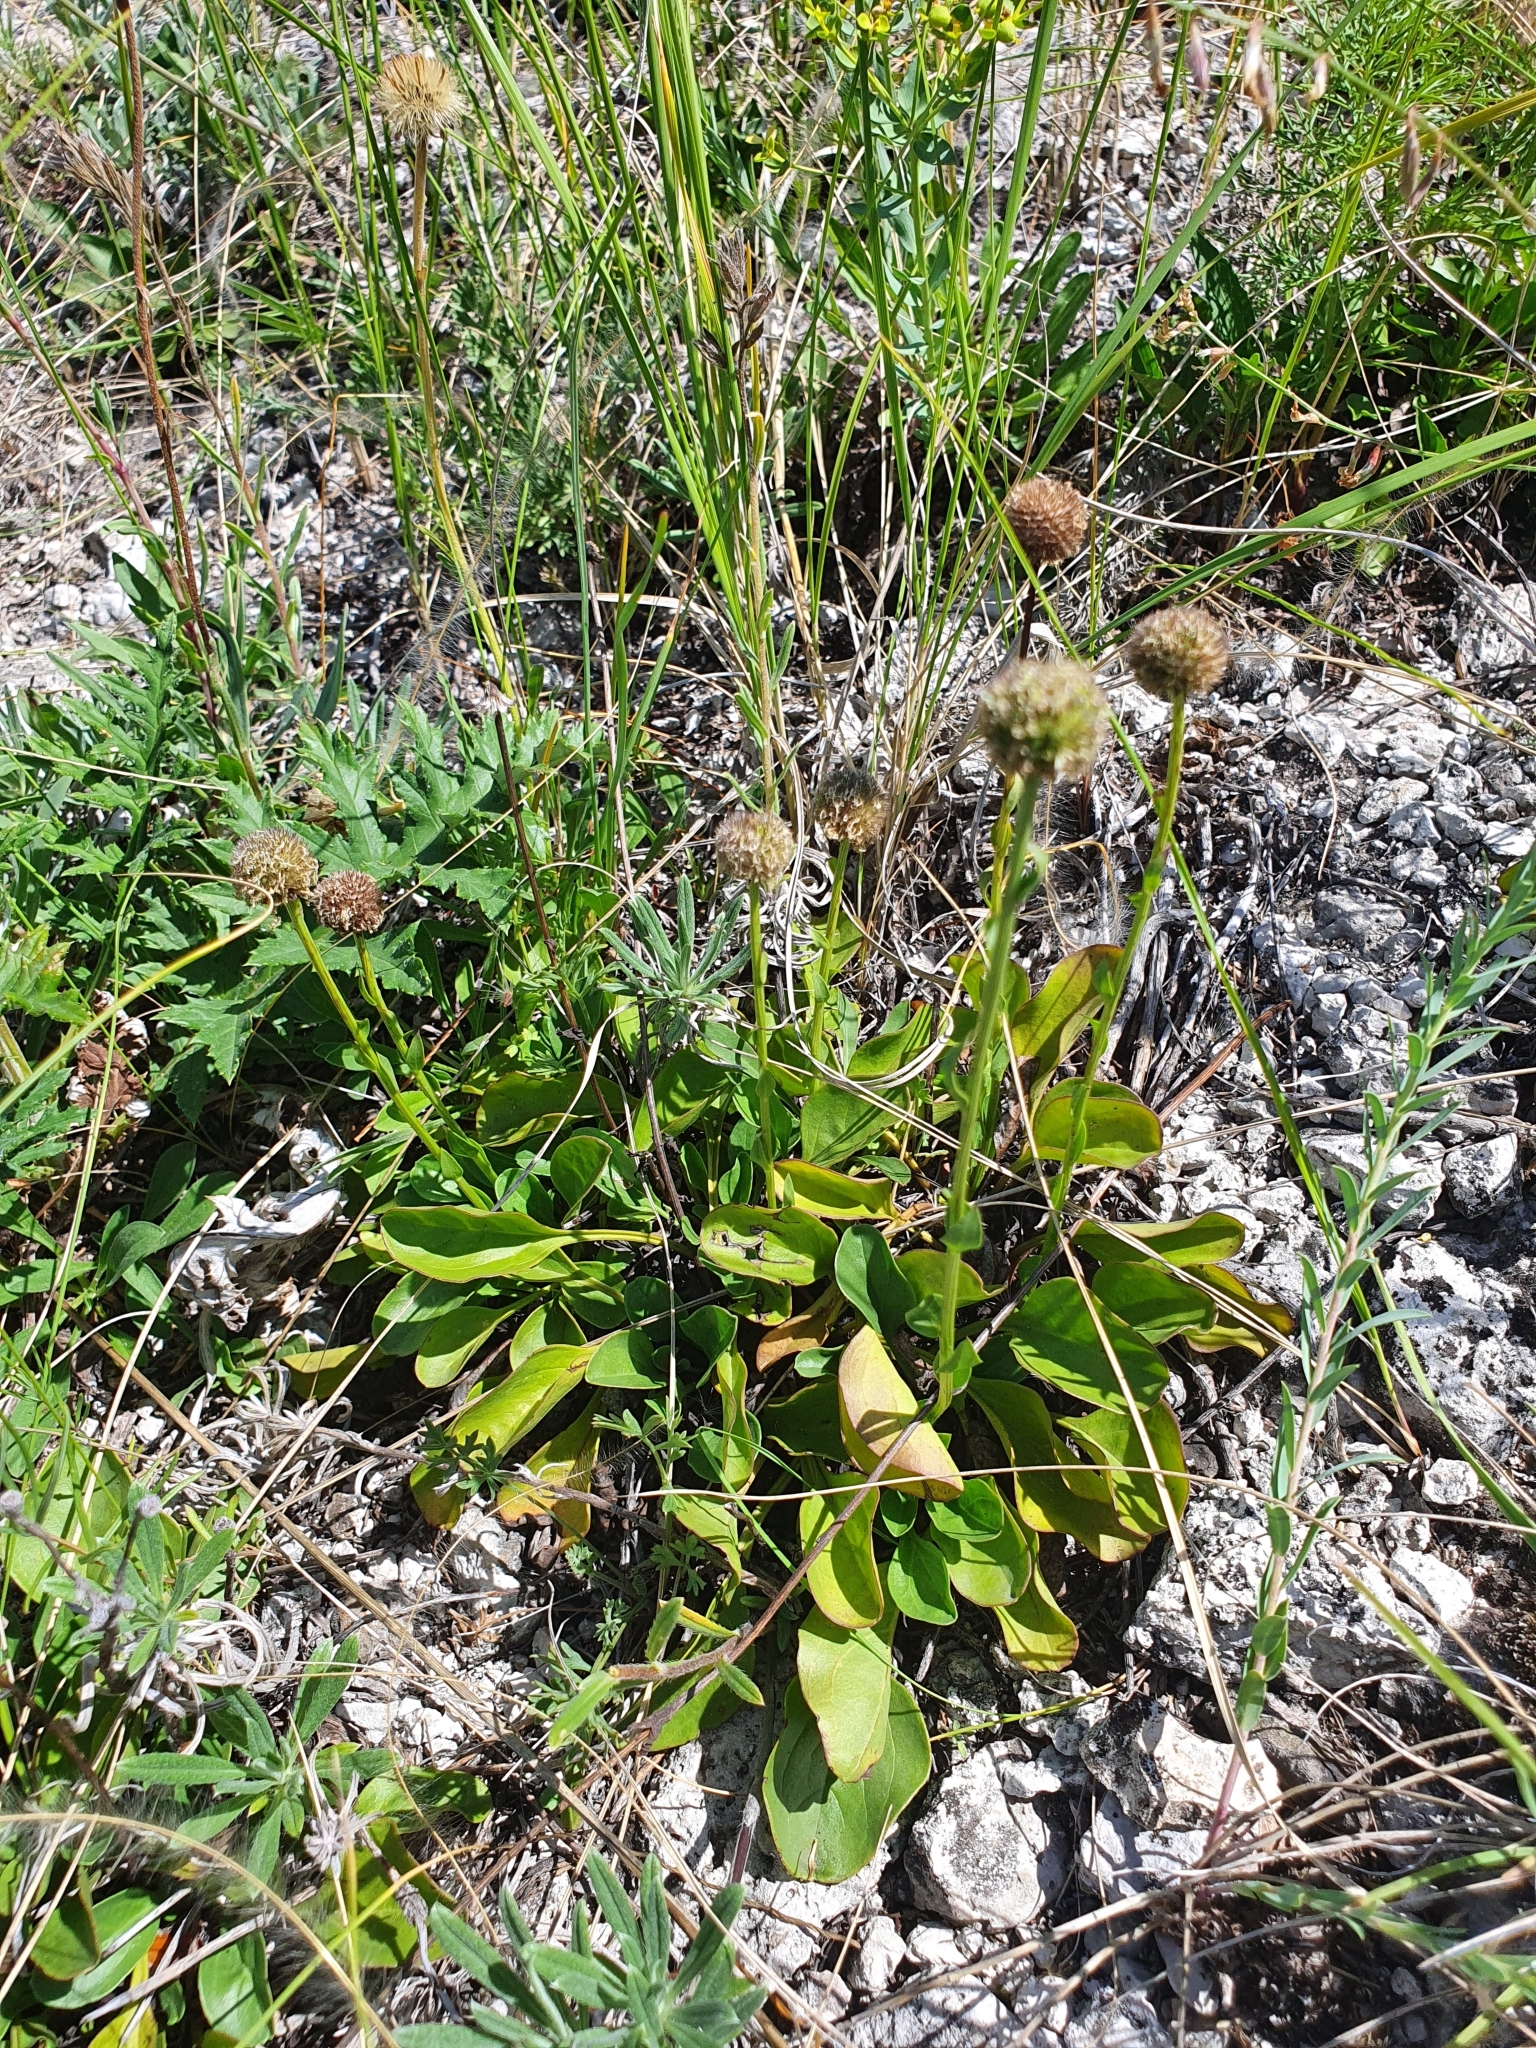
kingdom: Plantae
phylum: Tracheophyta
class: Magnoliopsida
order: Lamiales
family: Plantaginaceae
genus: Globularia
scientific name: Globularia bisnagarica
